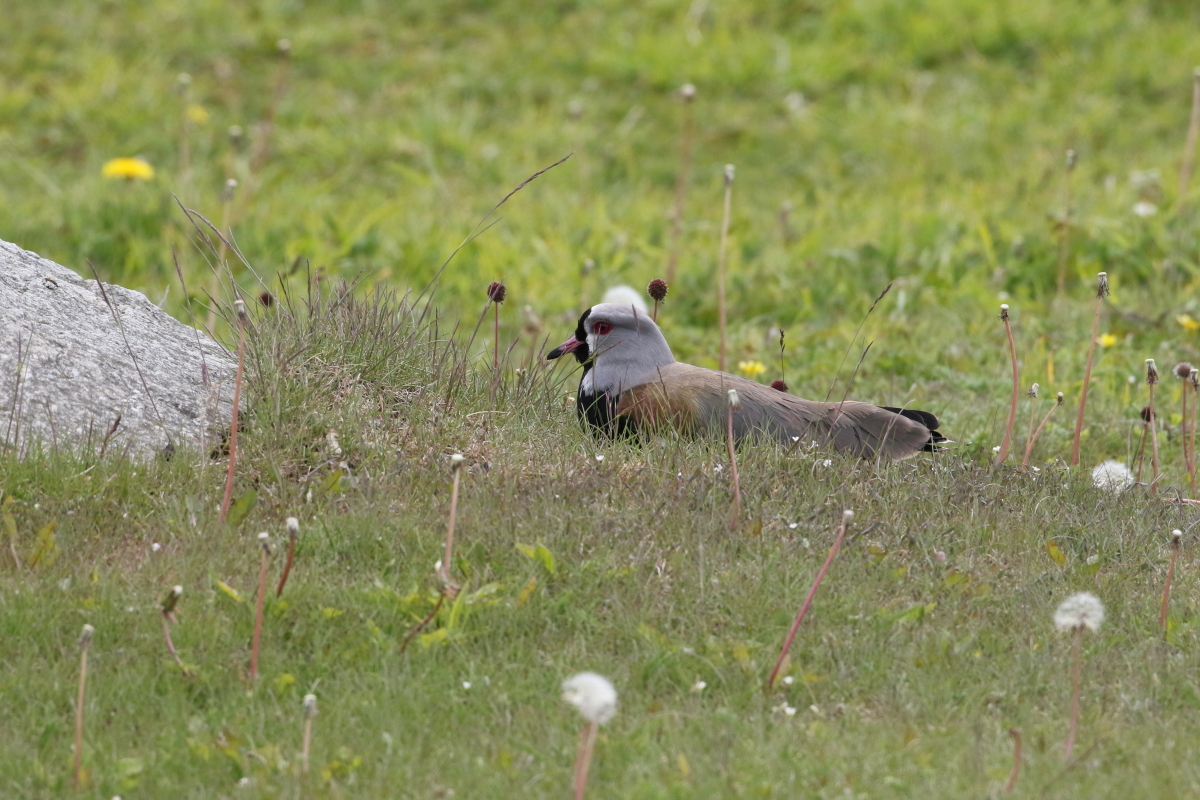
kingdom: Animalia
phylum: Chordata
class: Aves
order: Charadriiformes
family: Charadriidae
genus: Vanellus
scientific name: Vanellus chilensis
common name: Southern lapwing
